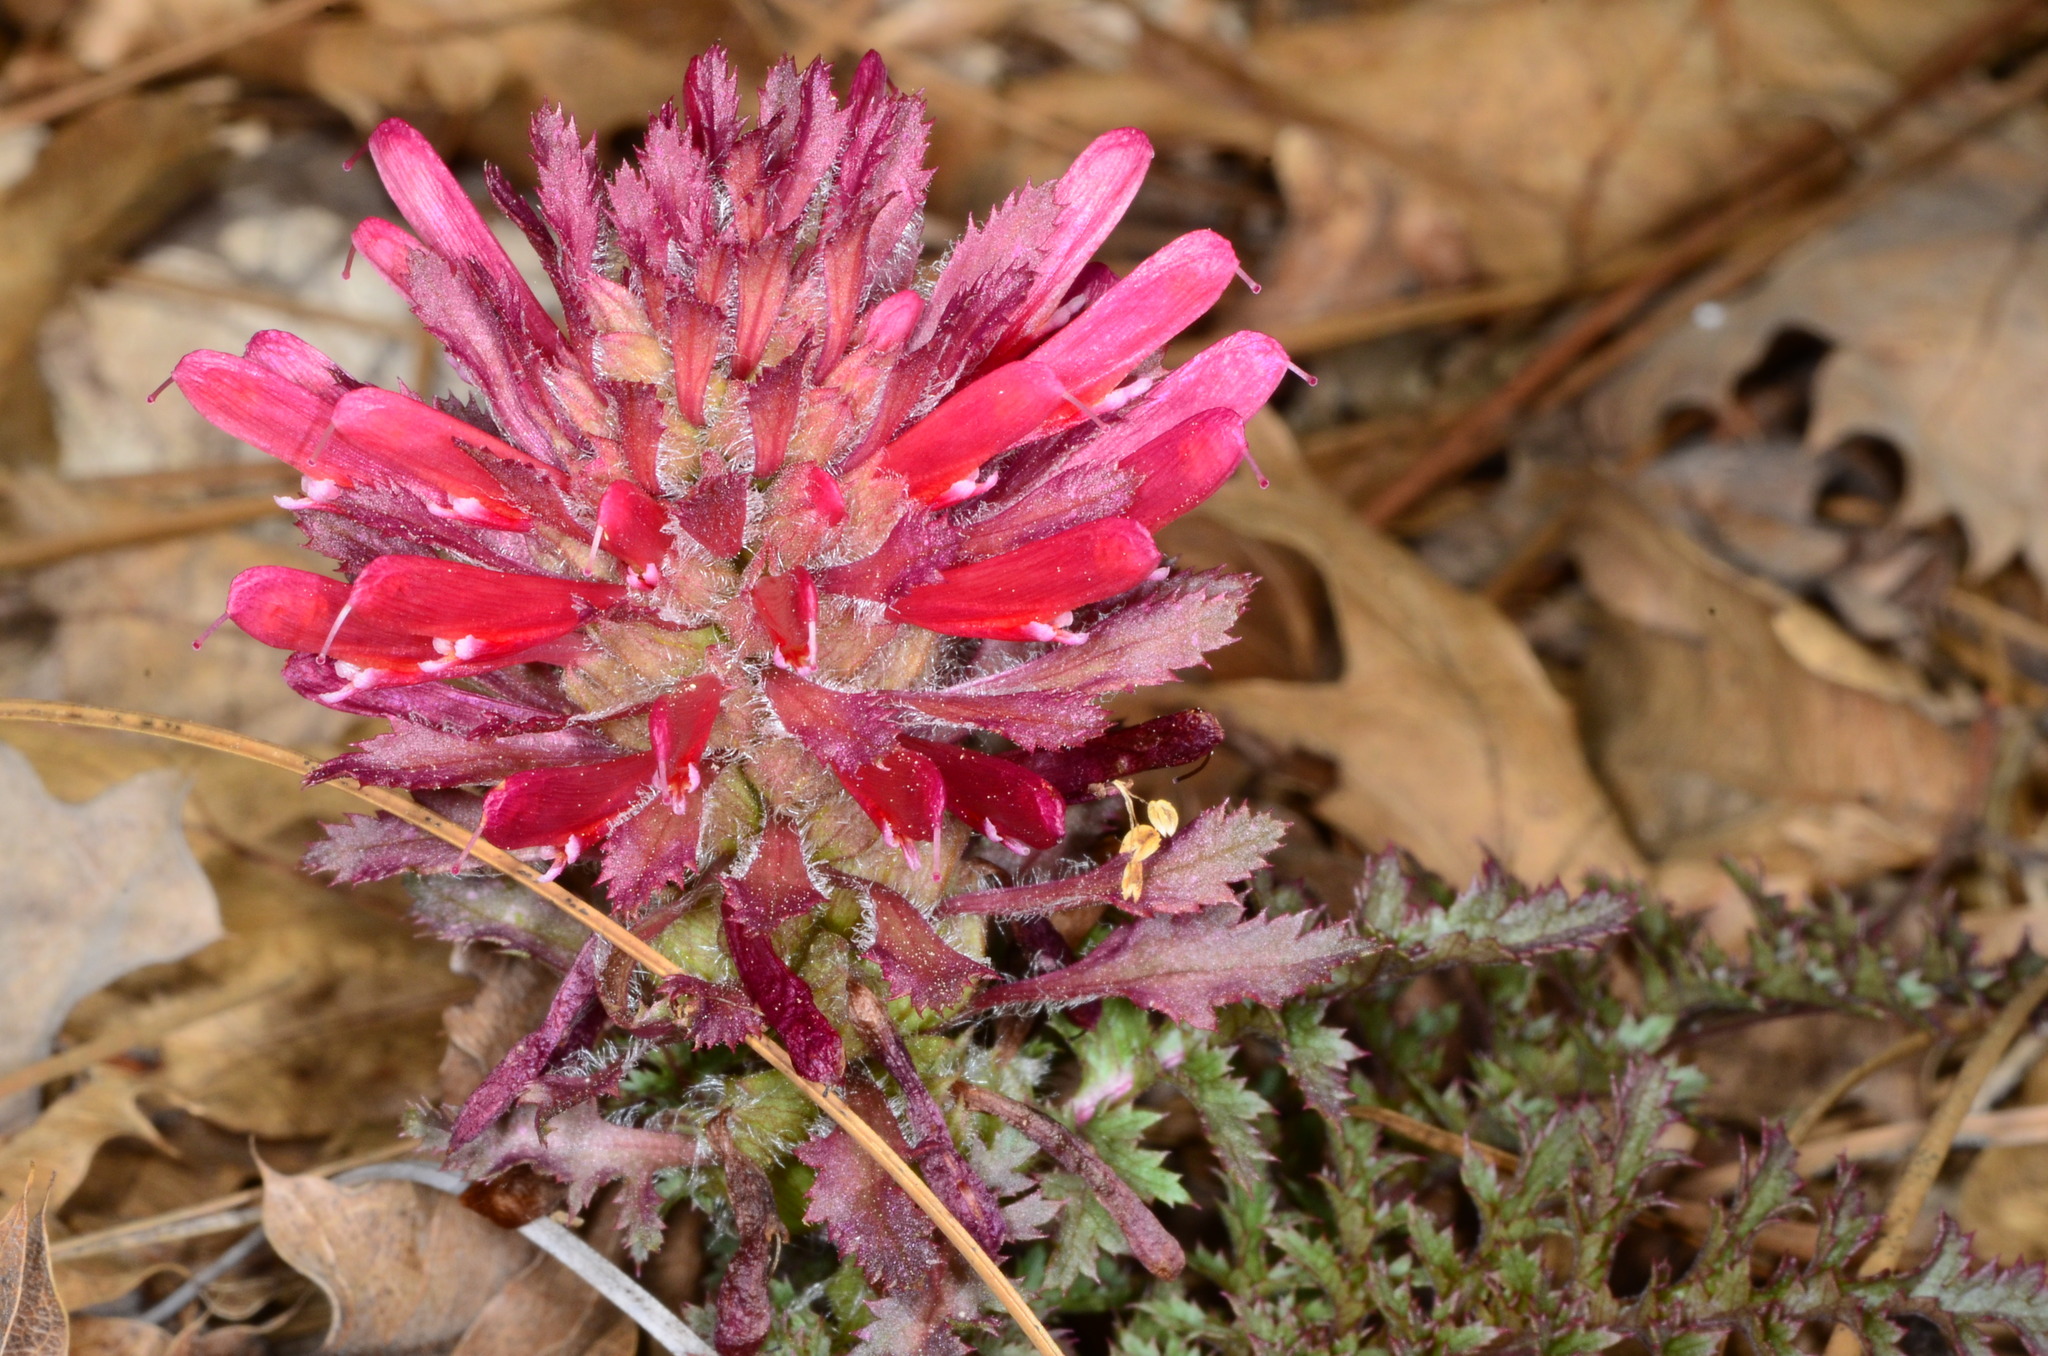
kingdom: Plantae
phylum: Tracheophyta
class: Magnoliopsida
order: Lamiales
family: Orobanchaceae
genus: Pedicularis
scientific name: Pedicularis densiflora
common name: Indian warrior
